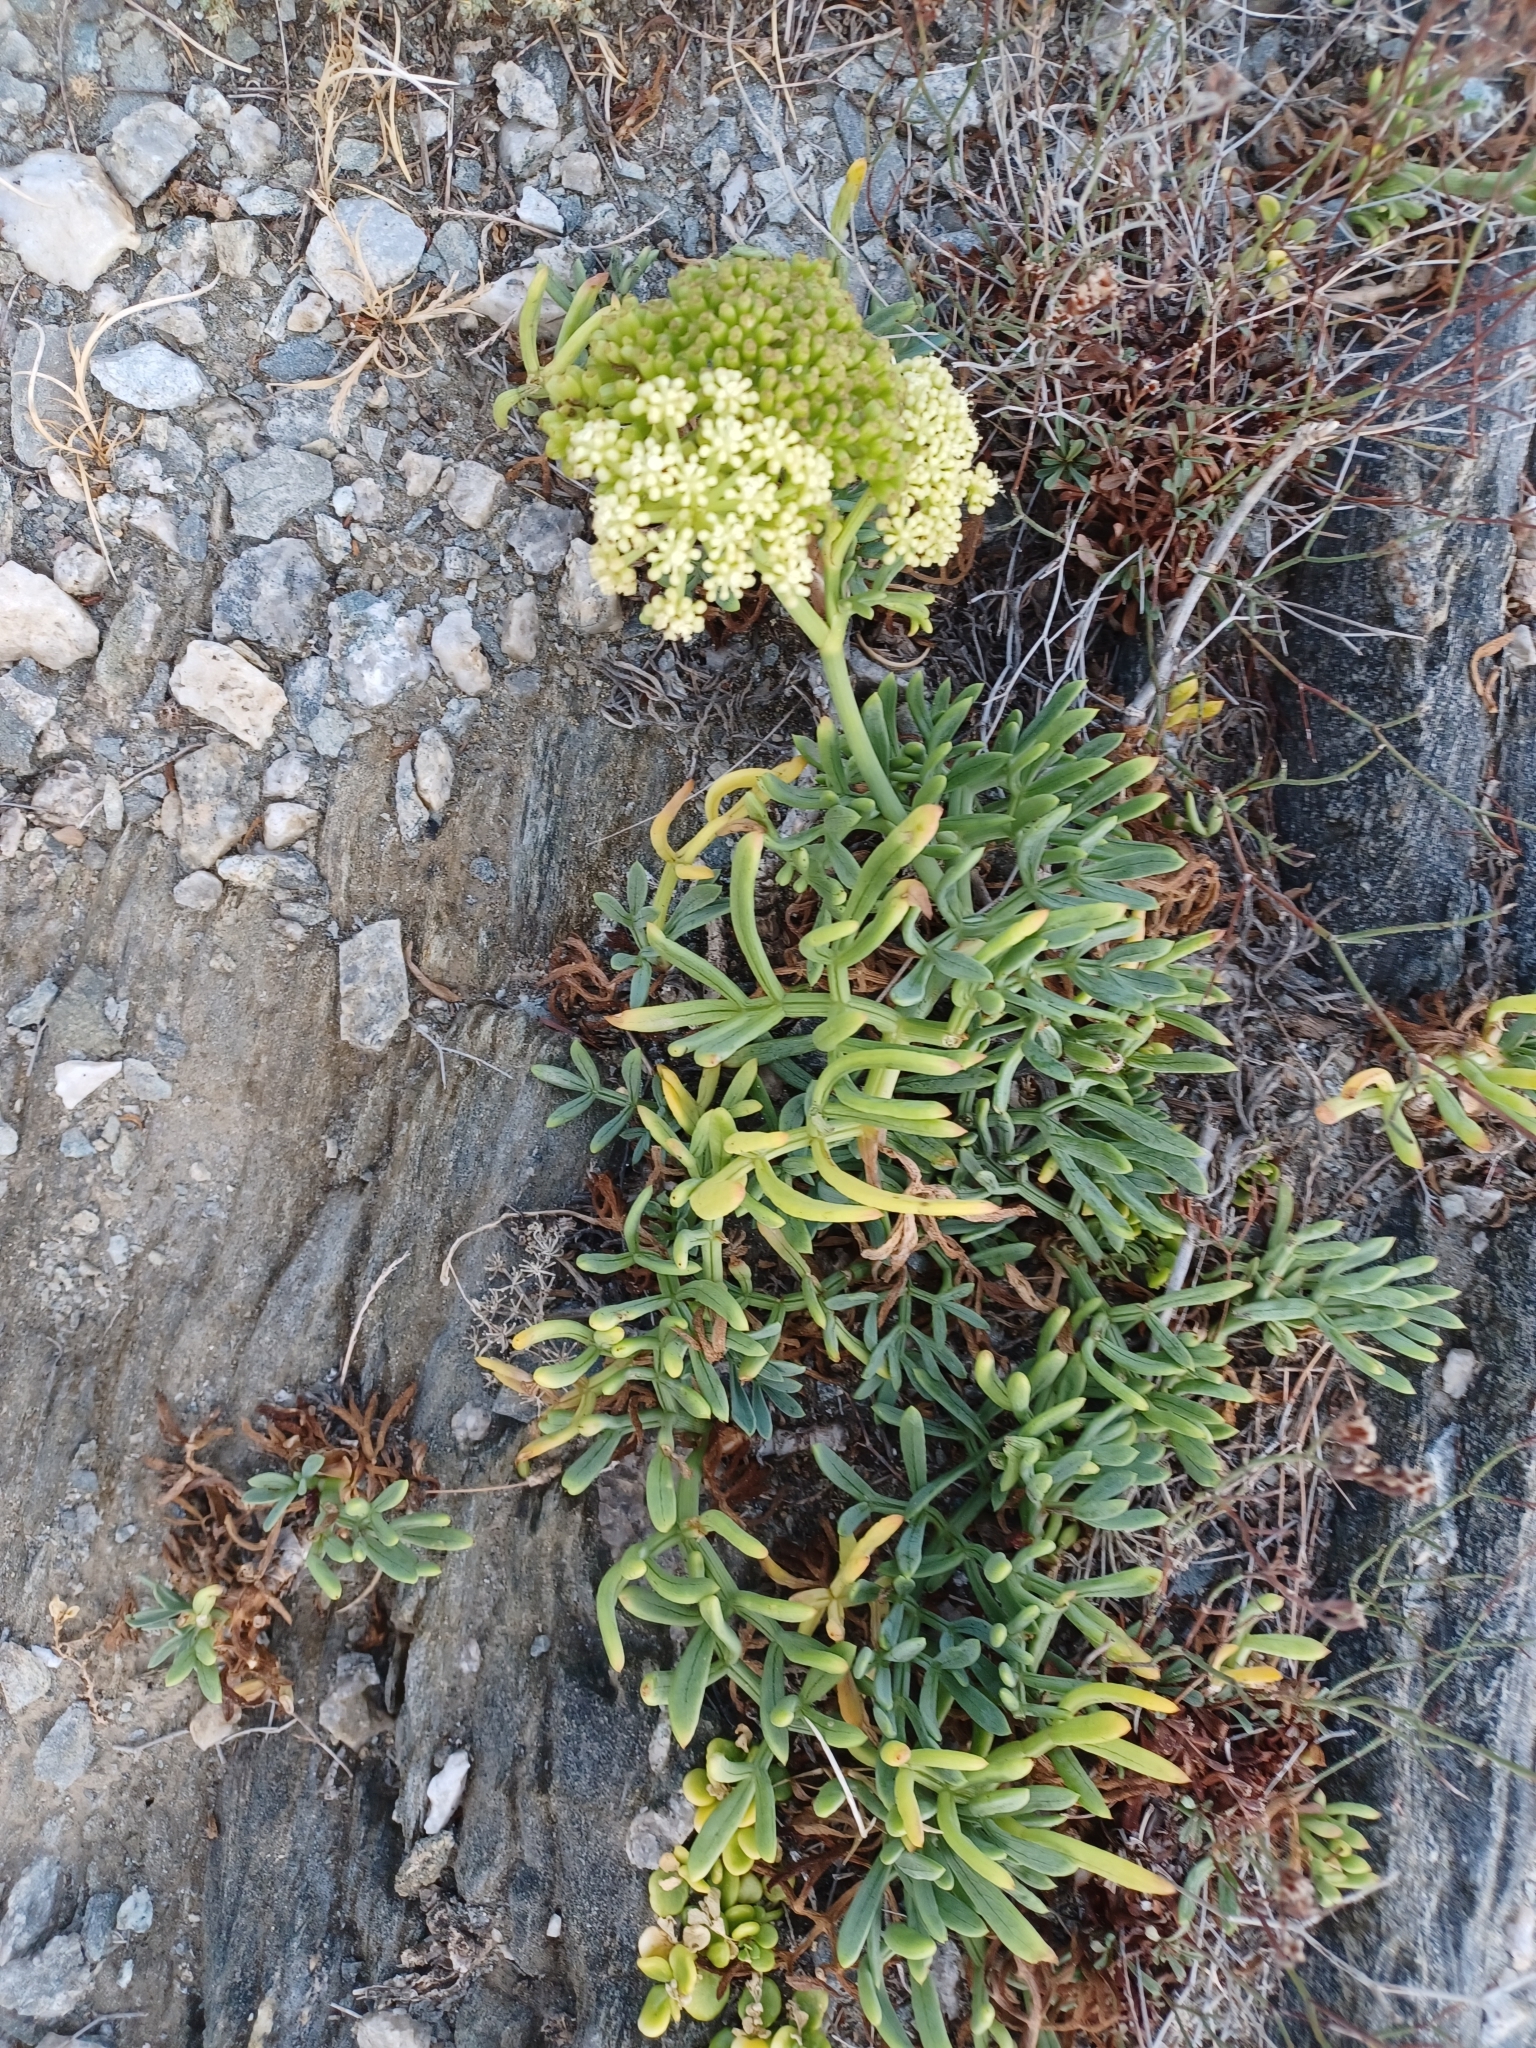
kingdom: Plantae
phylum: Tracheophyta
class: Magnoliopsida
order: Apiales
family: Apiaceae
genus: Crithmum
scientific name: Crithmum maritimum
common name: Rock samphire
